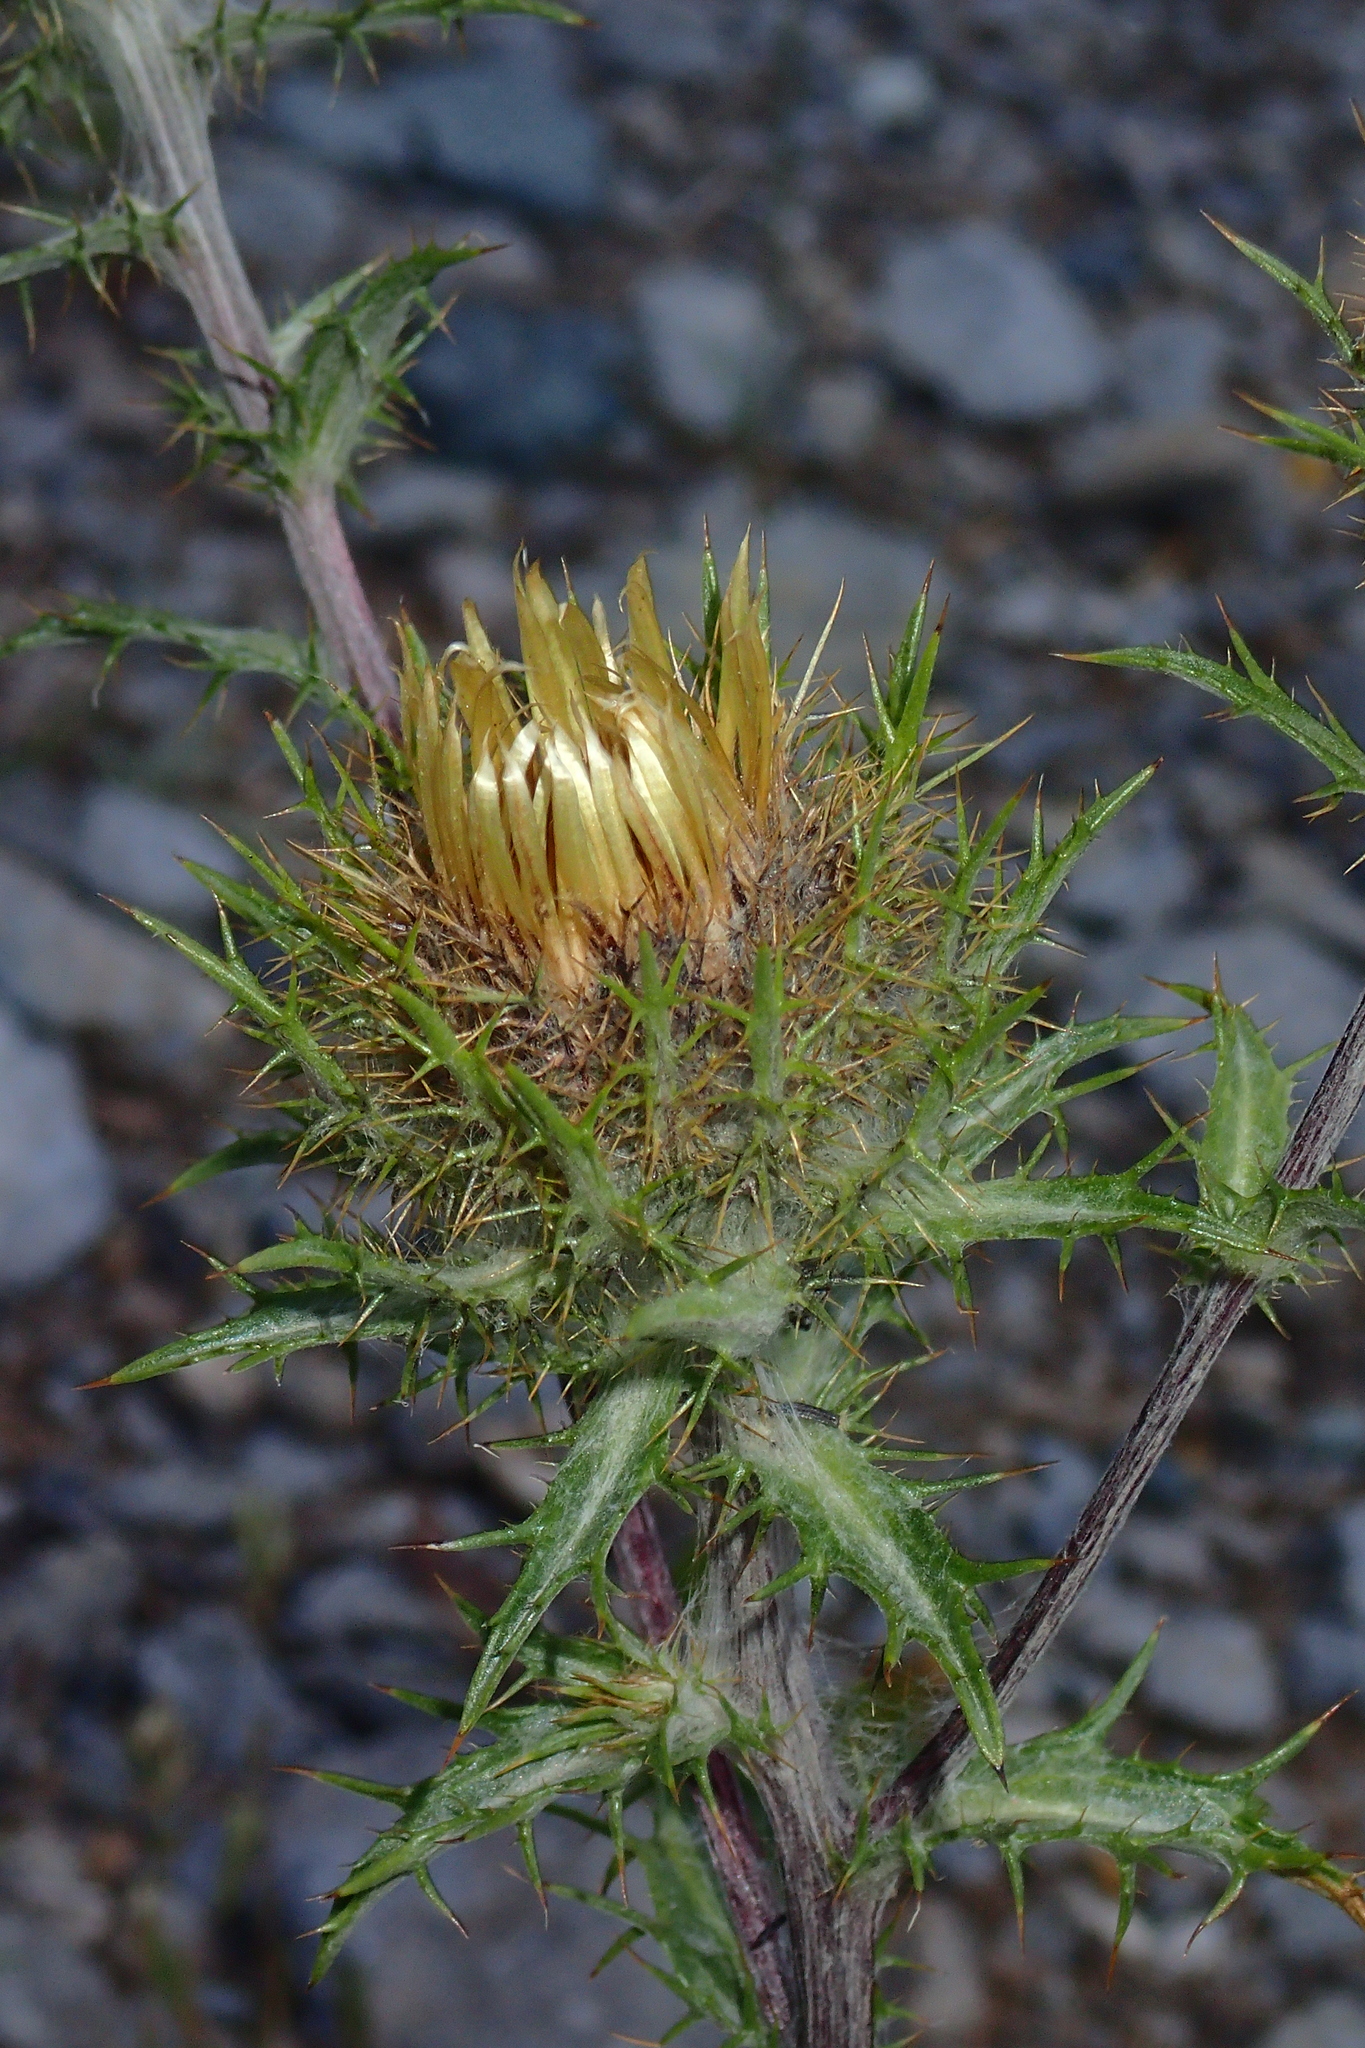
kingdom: Plantae
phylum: Tracheophyta
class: Magnoliopsida
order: Asterales
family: Asteraceae
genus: Carlina
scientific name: Carlina vulgaris
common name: Carline thistle
